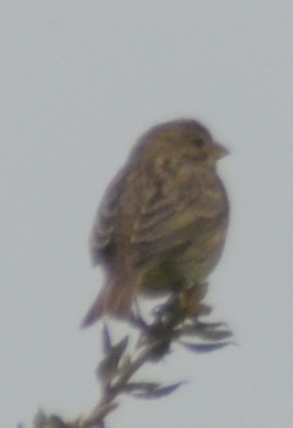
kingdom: Animalia
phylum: Chordata
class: Aves
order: Passeriformes
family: Emberizidae
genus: Emberiza
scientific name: Emberiza calandra
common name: Corn bunting
